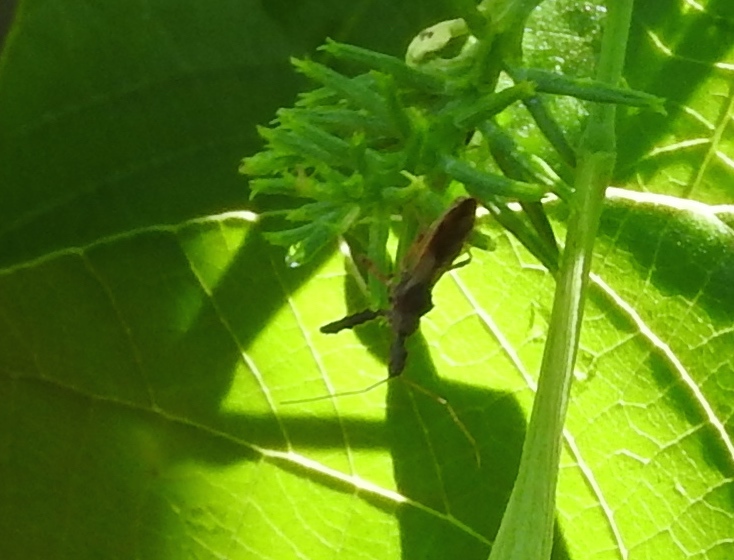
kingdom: Animalia
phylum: Arthropoda
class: Insecta
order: Hemiptera
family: Reduviidae
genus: Sinea
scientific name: Sinea
